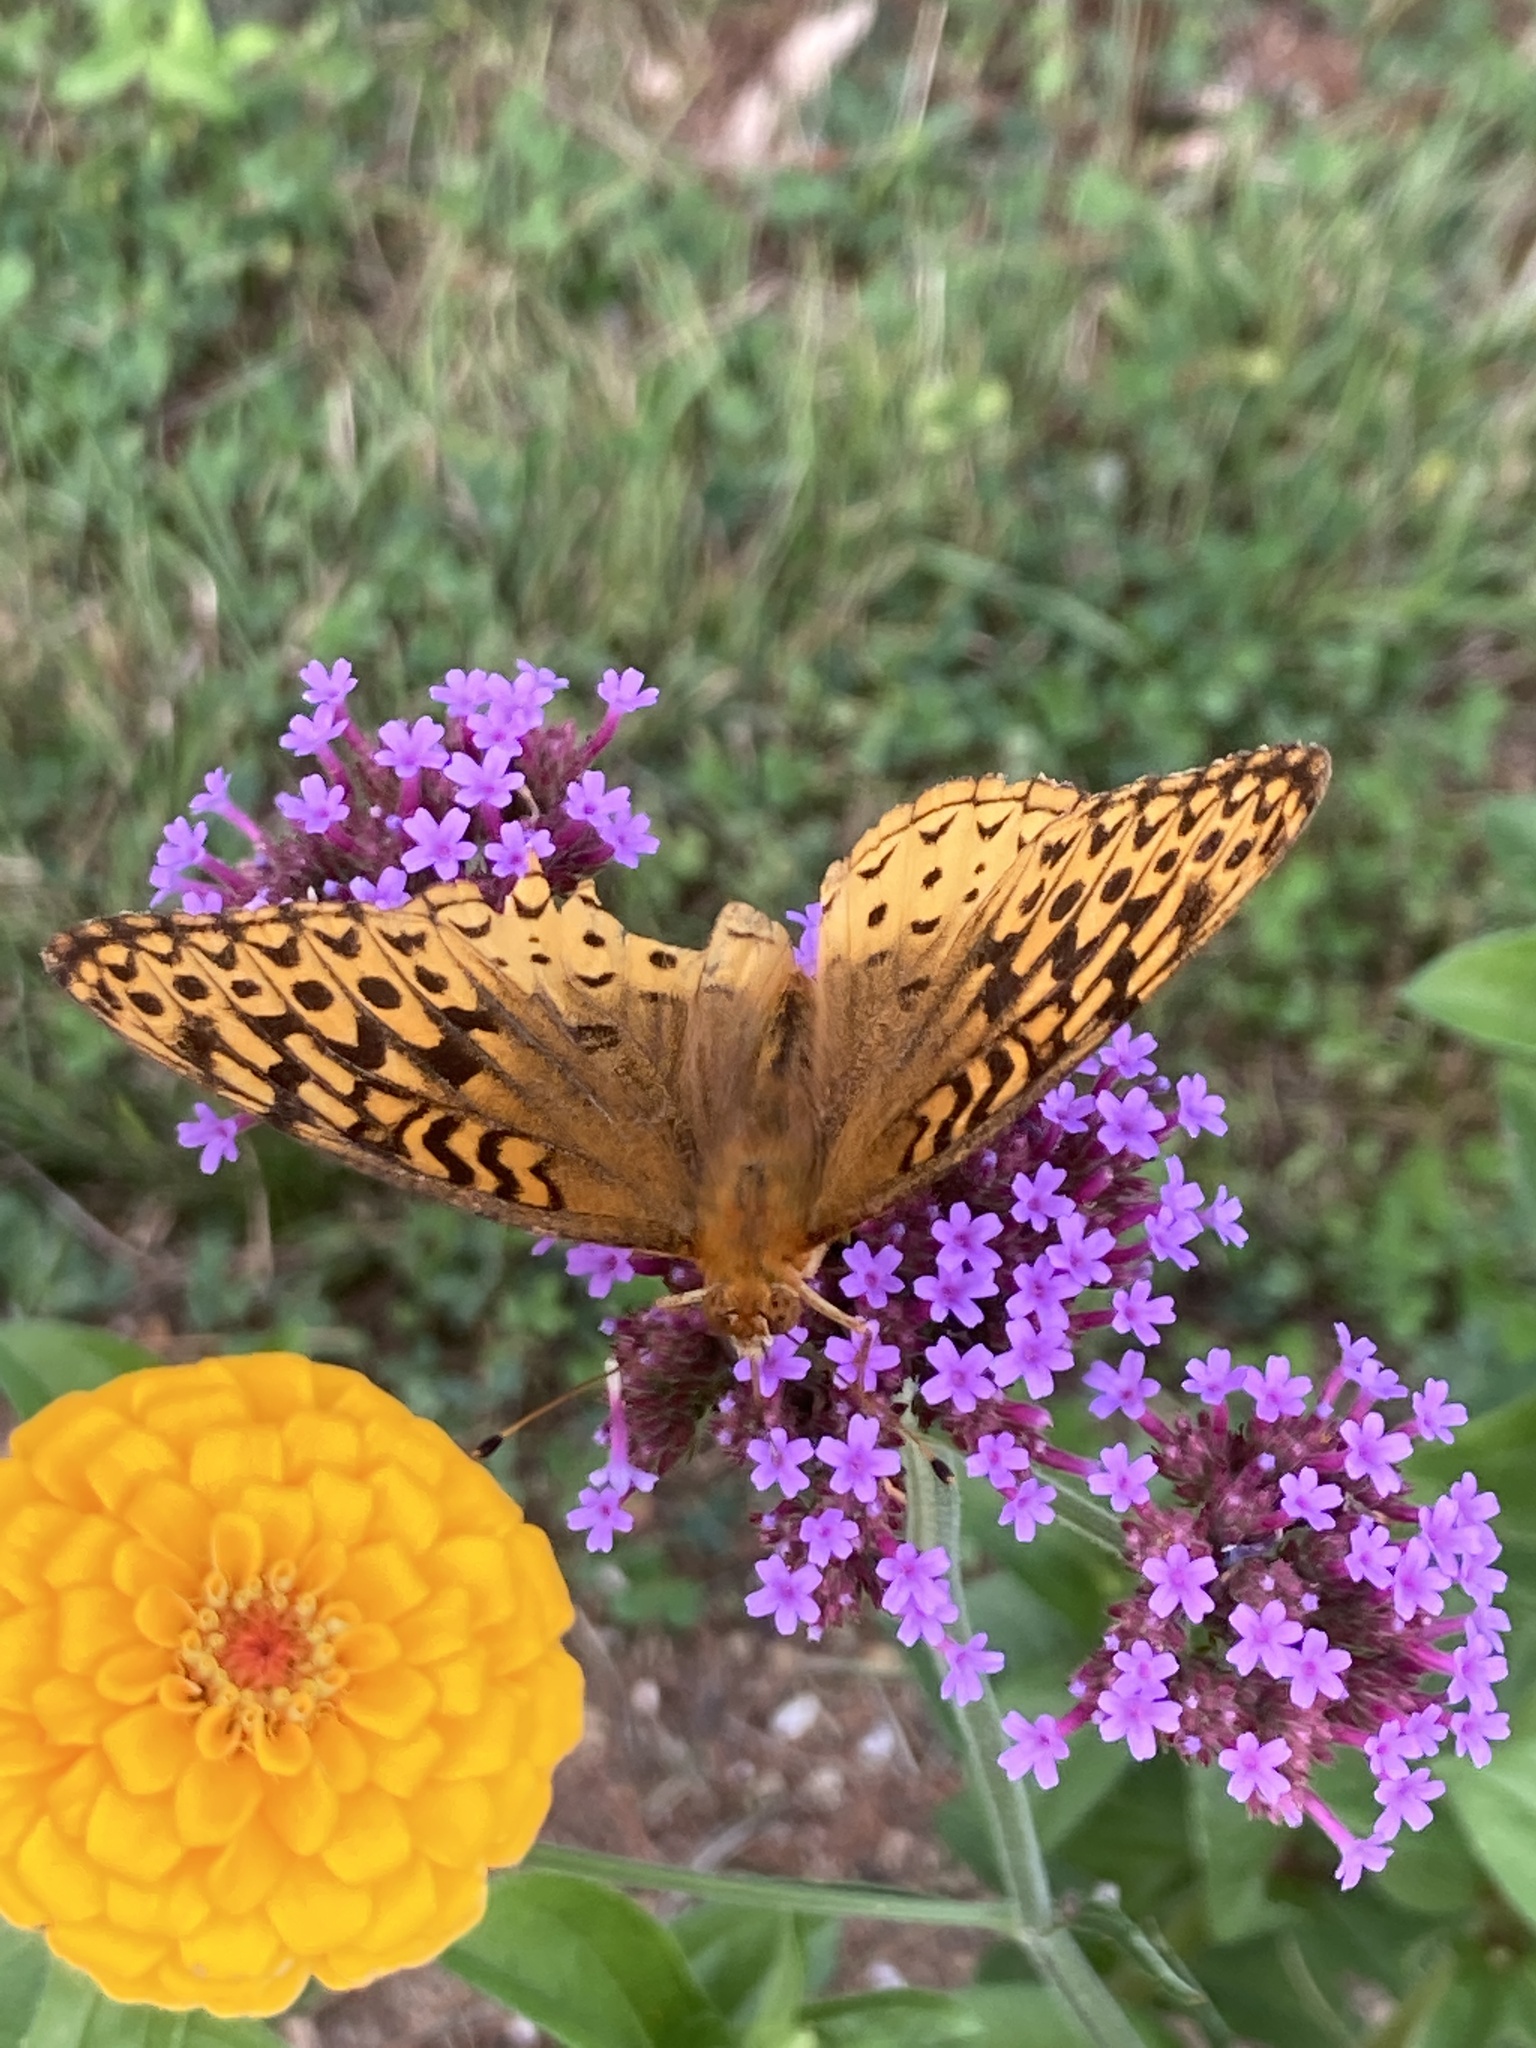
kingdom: Animalia
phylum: Arthropoda
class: Insecta
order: Lepidoptera
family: Nymphalidae
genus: Speyeria
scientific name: Speyeria cybele
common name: Great spangled fritillary
